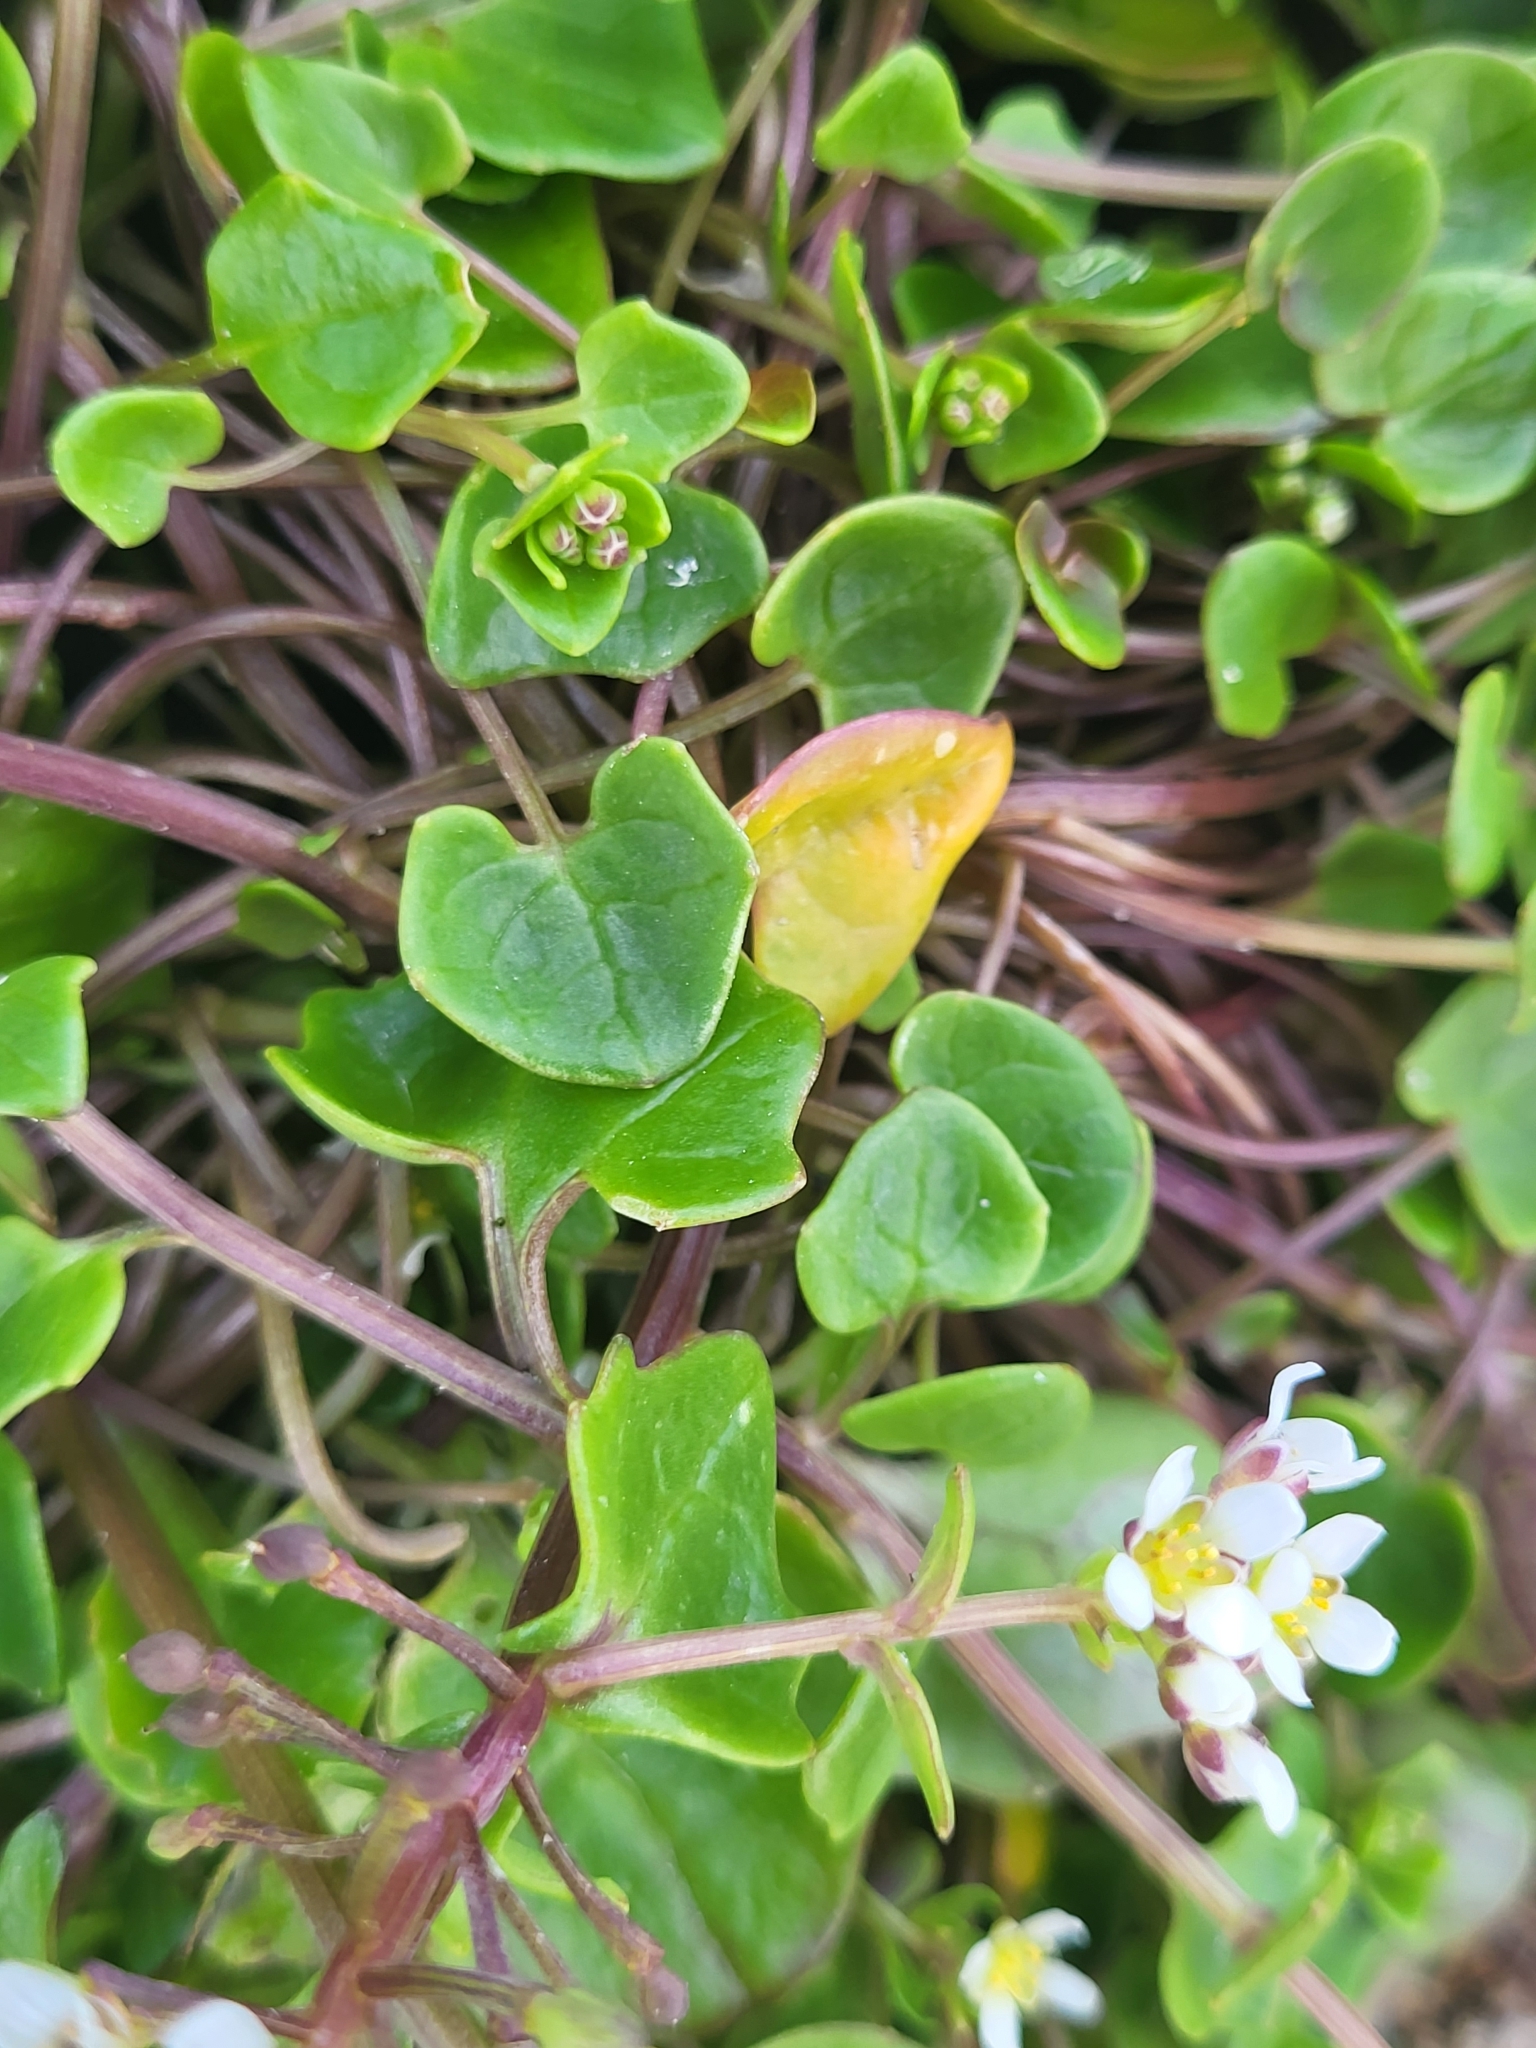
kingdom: Plantae
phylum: Tracheophyta
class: Magnoliopsida
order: Brassicales
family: Brassicaceae
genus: Cochlearia
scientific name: Cochlearia officinalis
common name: Scurvy-grass
